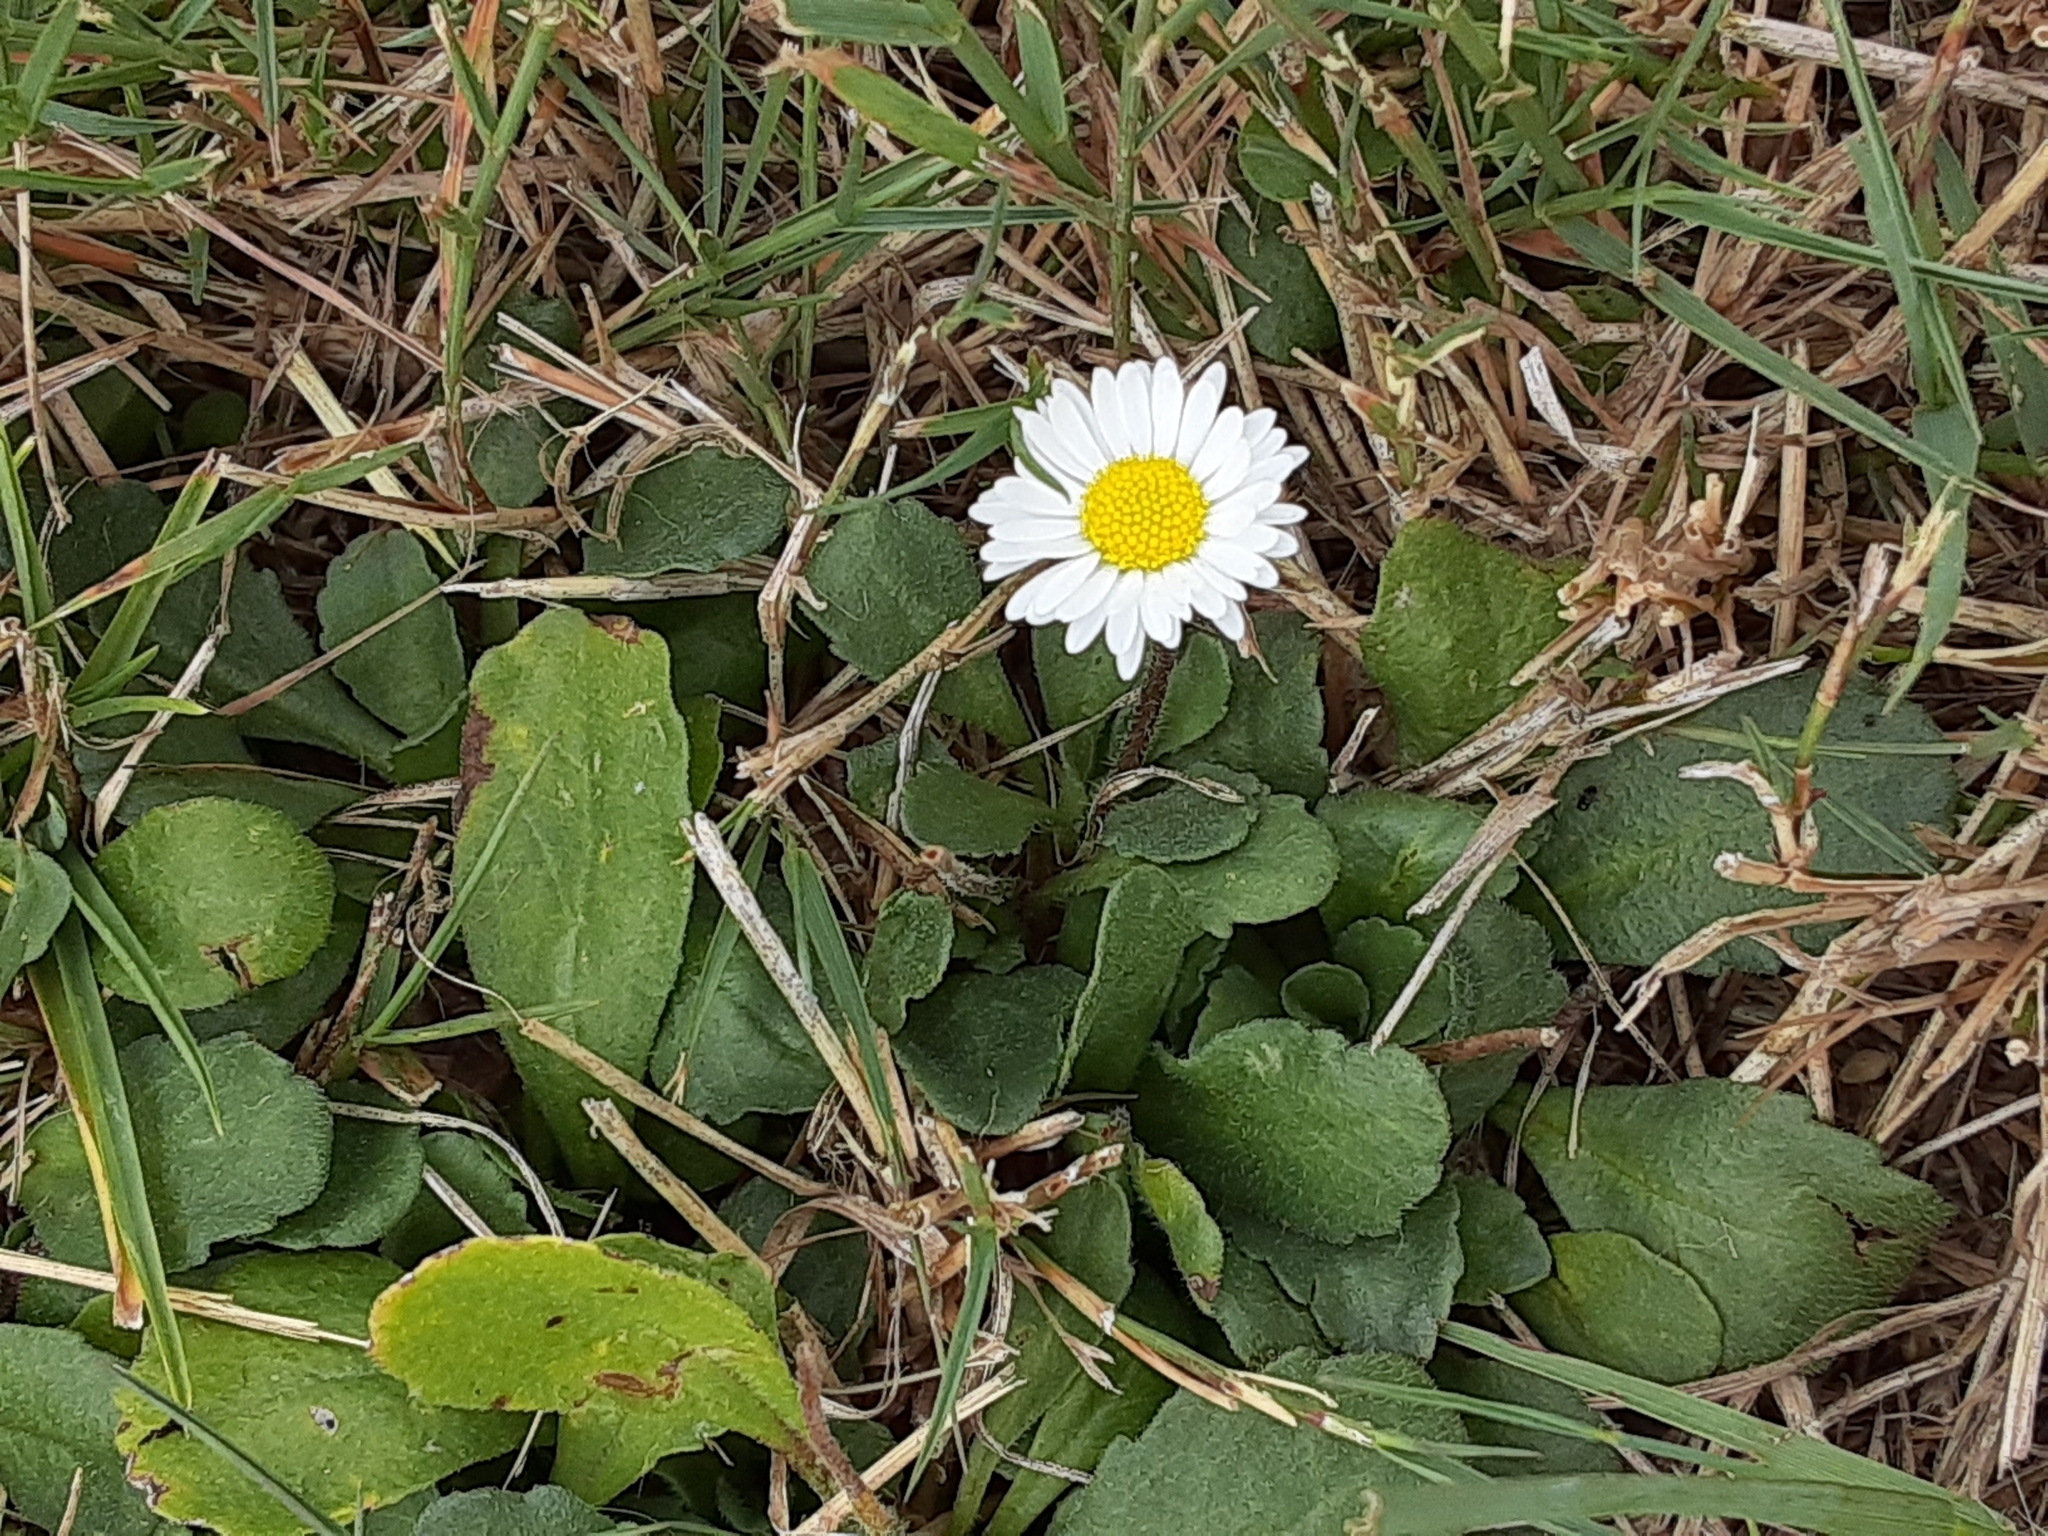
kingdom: Plantae
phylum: Tracheophyta
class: Magnoliopsida
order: Asterales
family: Asteraceae
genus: Bellis
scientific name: Bellis perennis
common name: Lawndaisy
